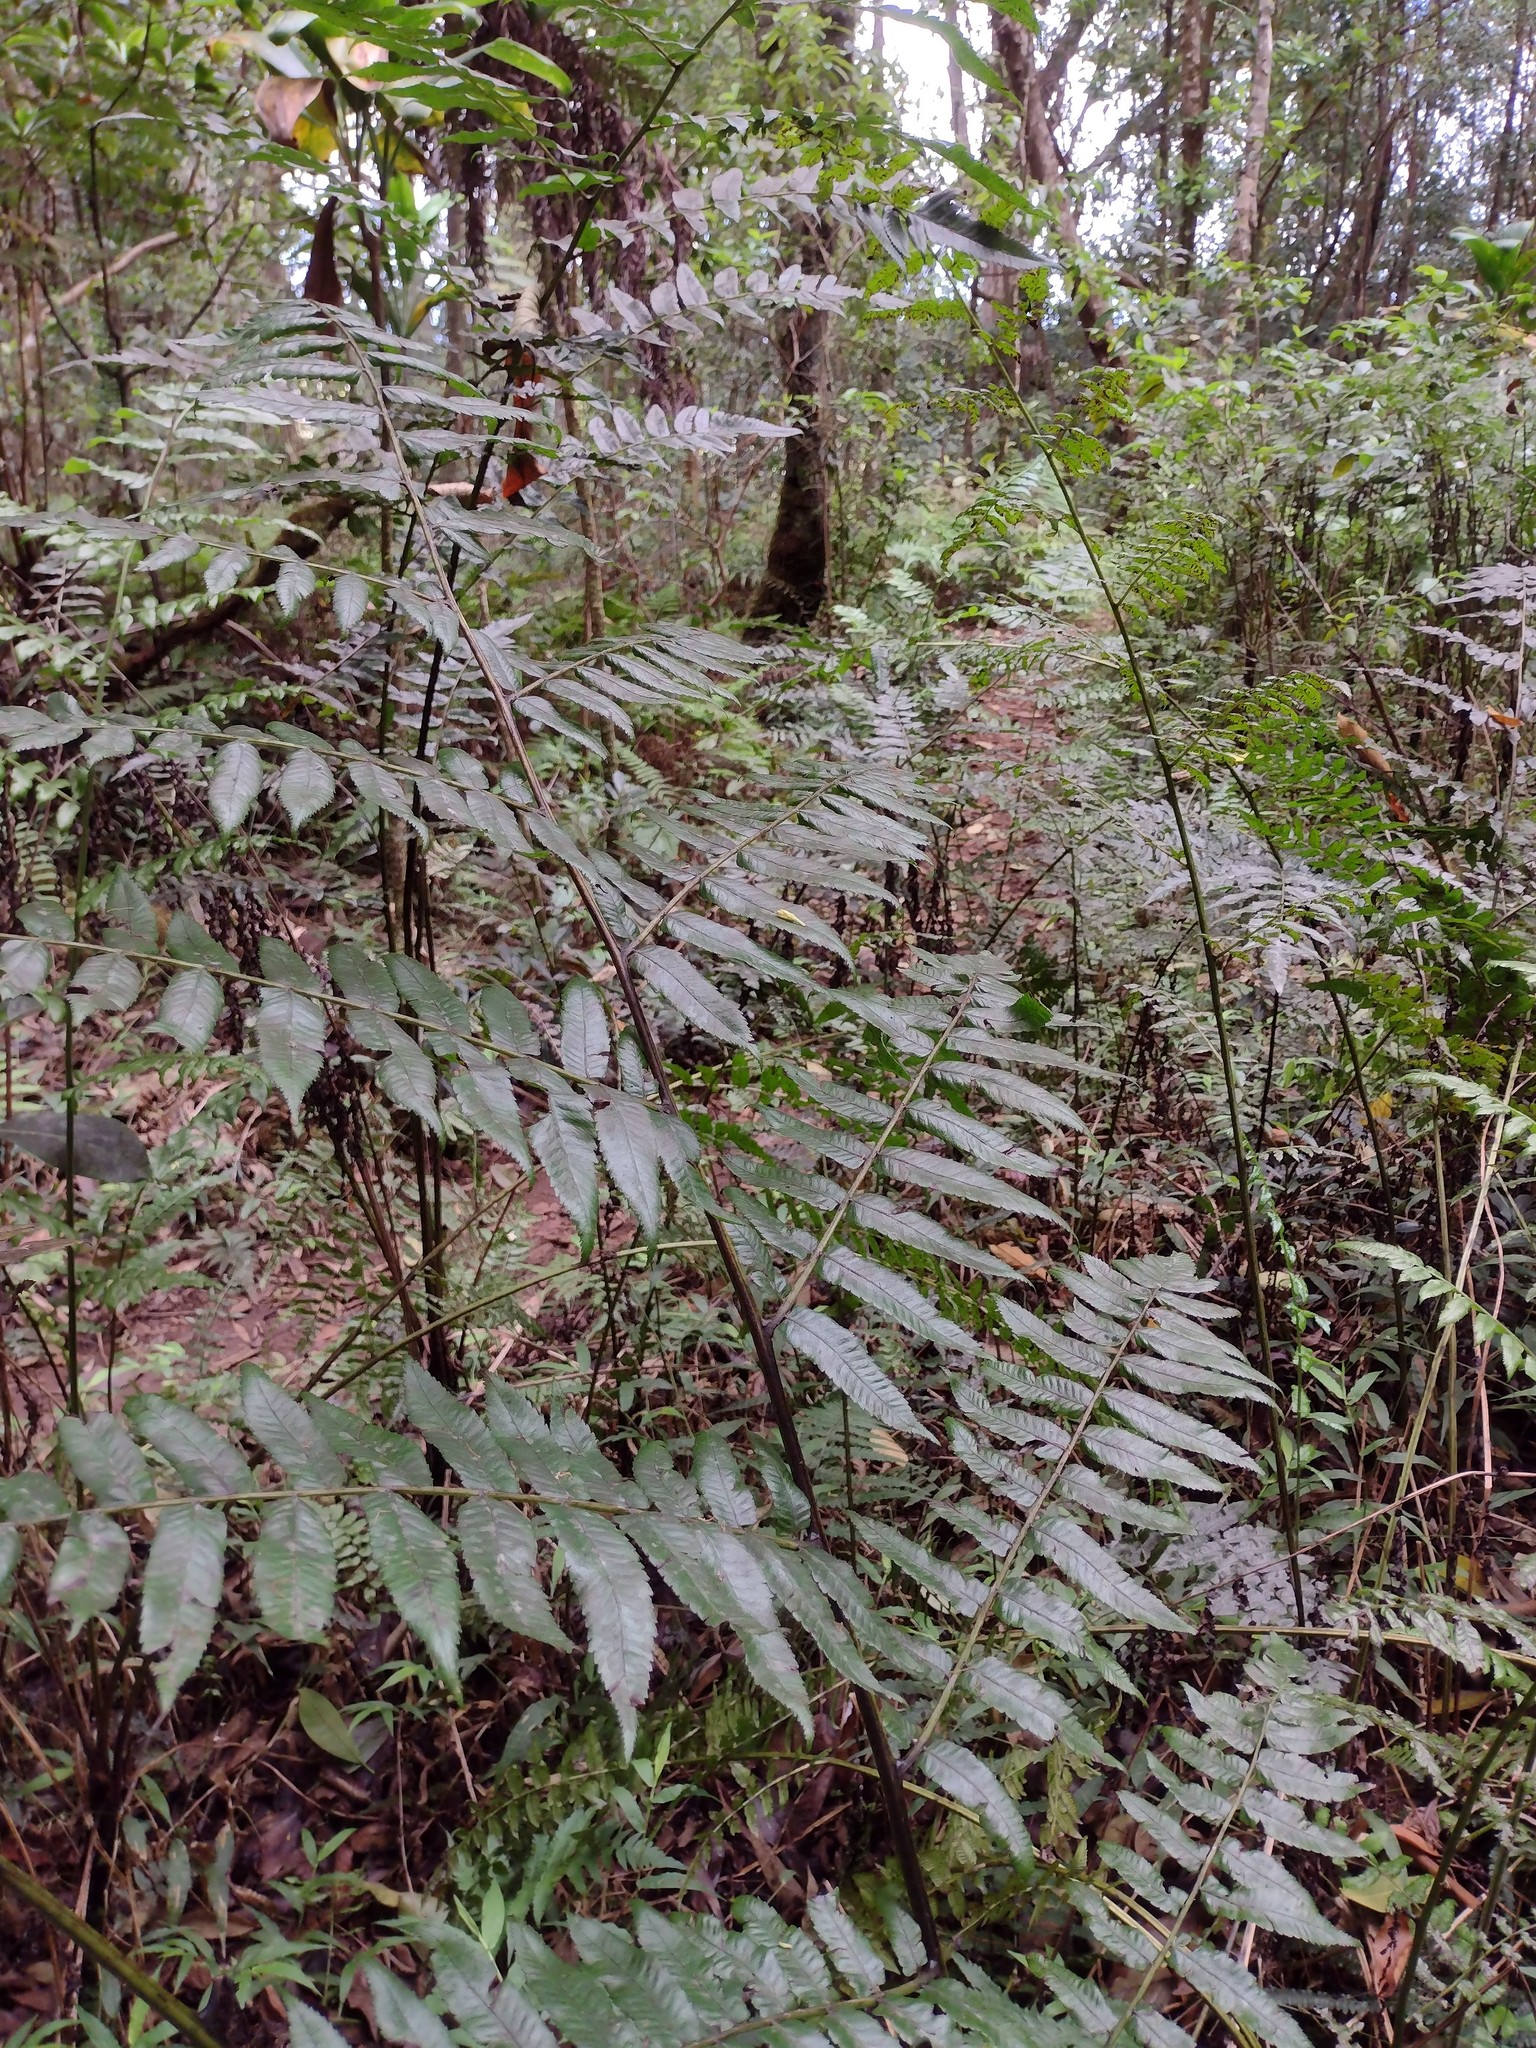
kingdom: Plantae
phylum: Tracheophyta
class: Polypodiopsida
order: Polypodiales
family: Athyriaceae
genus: Diplazium
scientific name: Diplazium esculentum
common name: Vegetable fern
